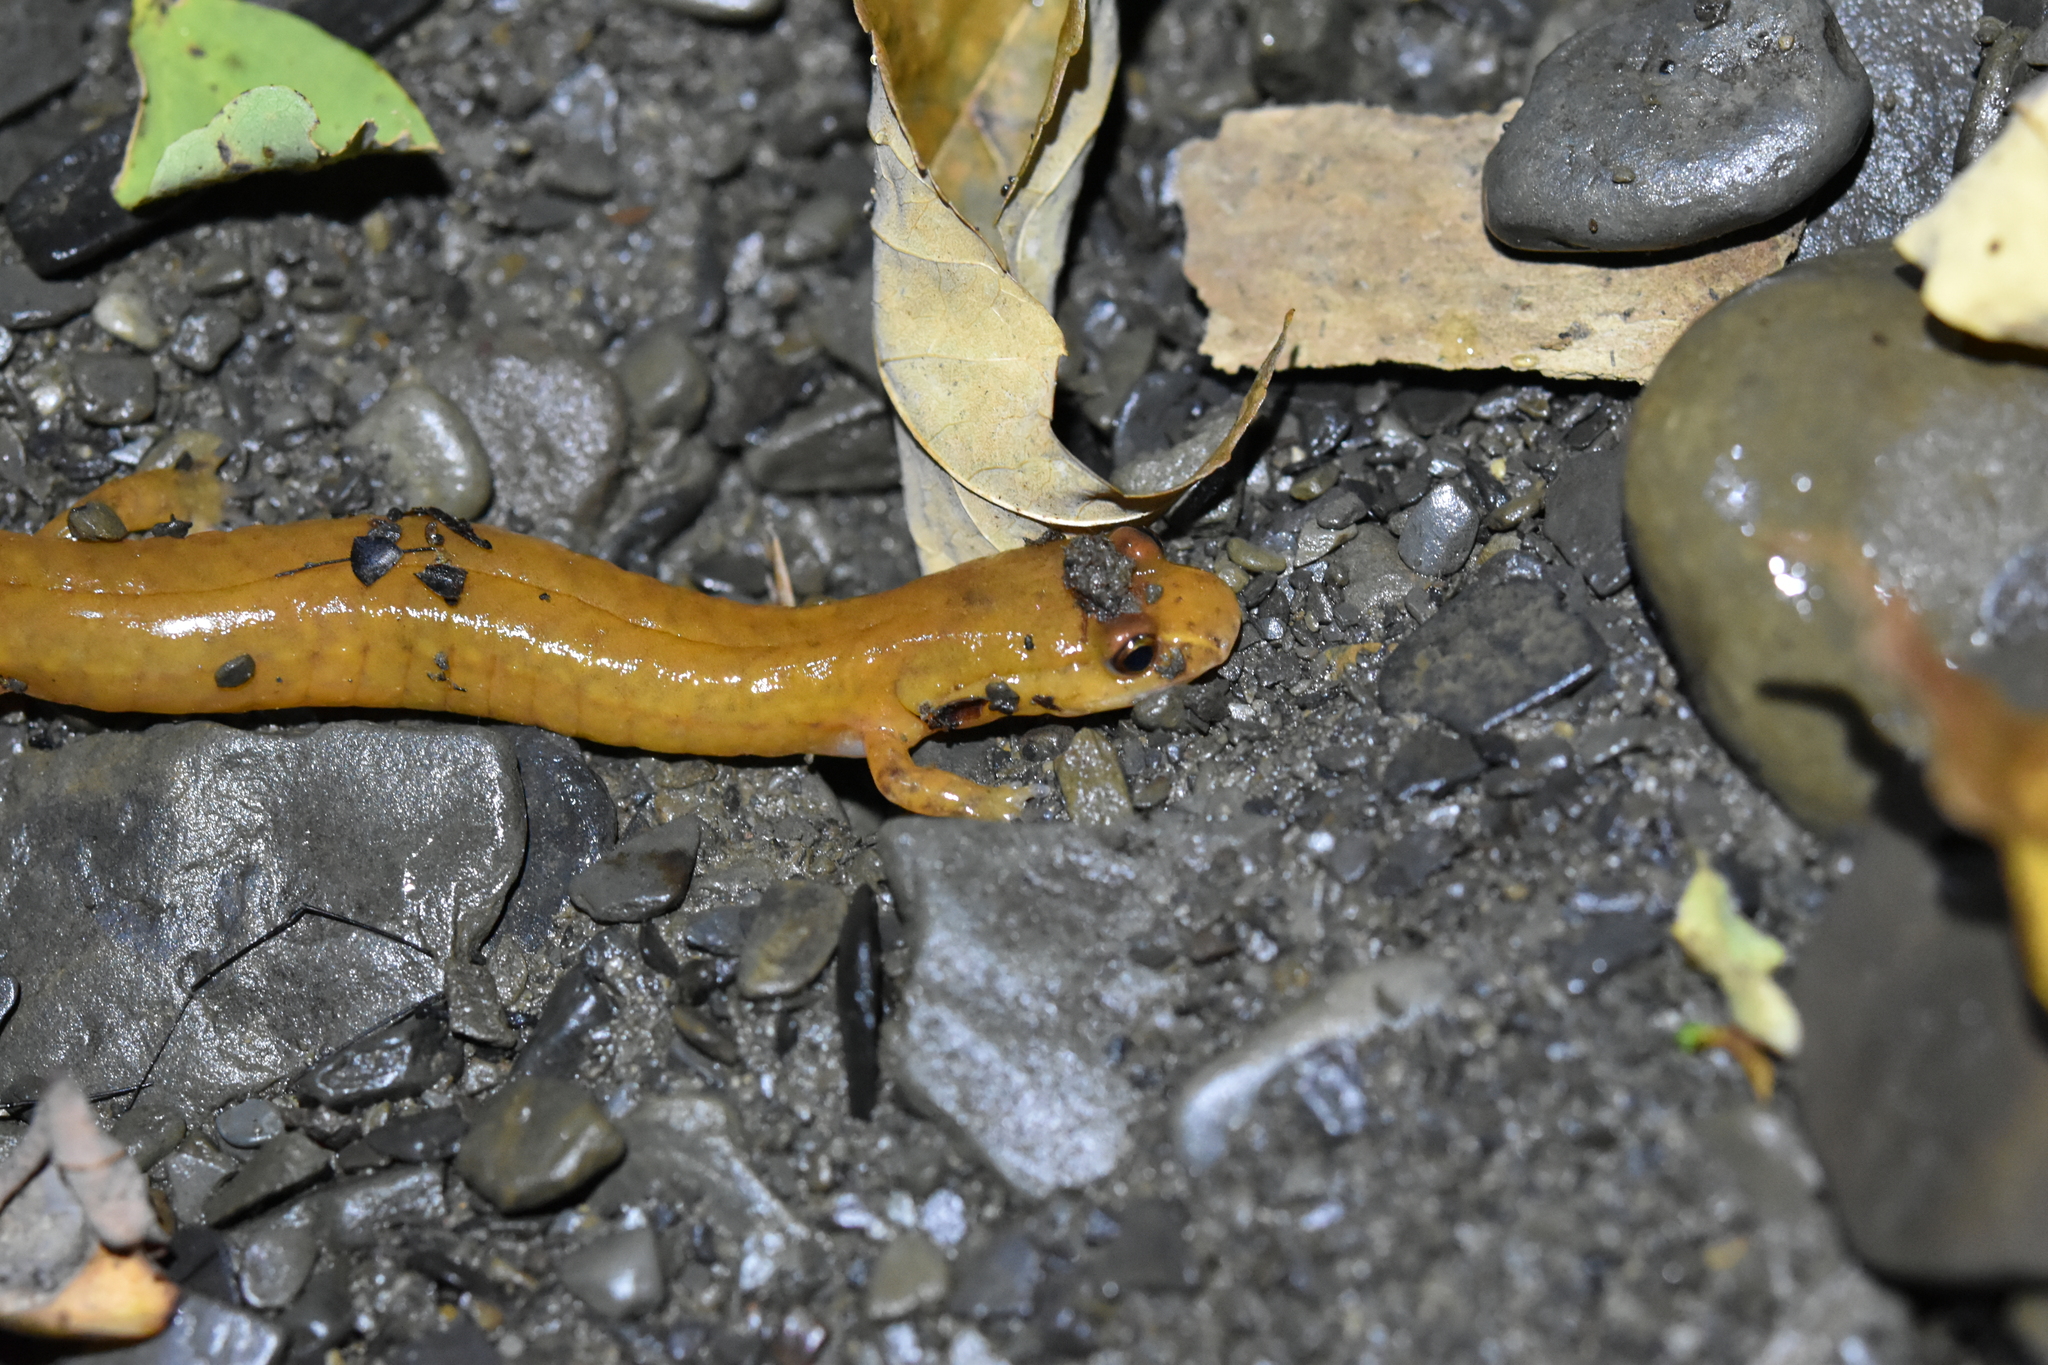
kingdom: Animalia
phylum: Chordata
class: Amphibia
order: Caudata
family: Plethodontidae
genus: Gyrinophilus
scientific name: Gyrinophilus porphyriticus
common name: Spring salamander
